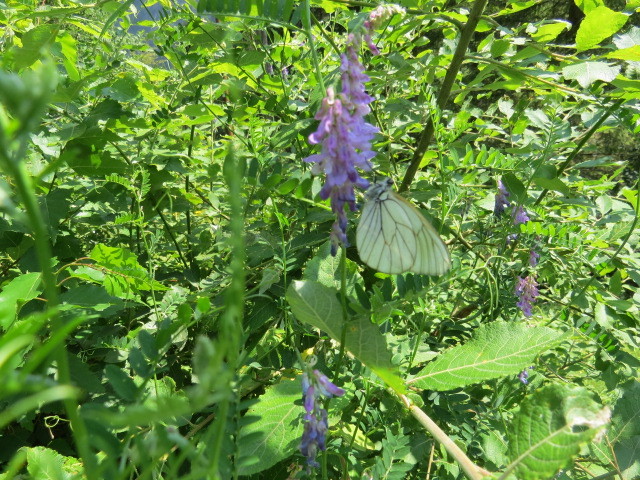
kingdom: Animalia
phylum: Arthropoda
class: Insecta
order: Lepidoptera
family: Pieridae
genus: Aporia
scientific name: Aporia crataegi
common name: Black-veined white
